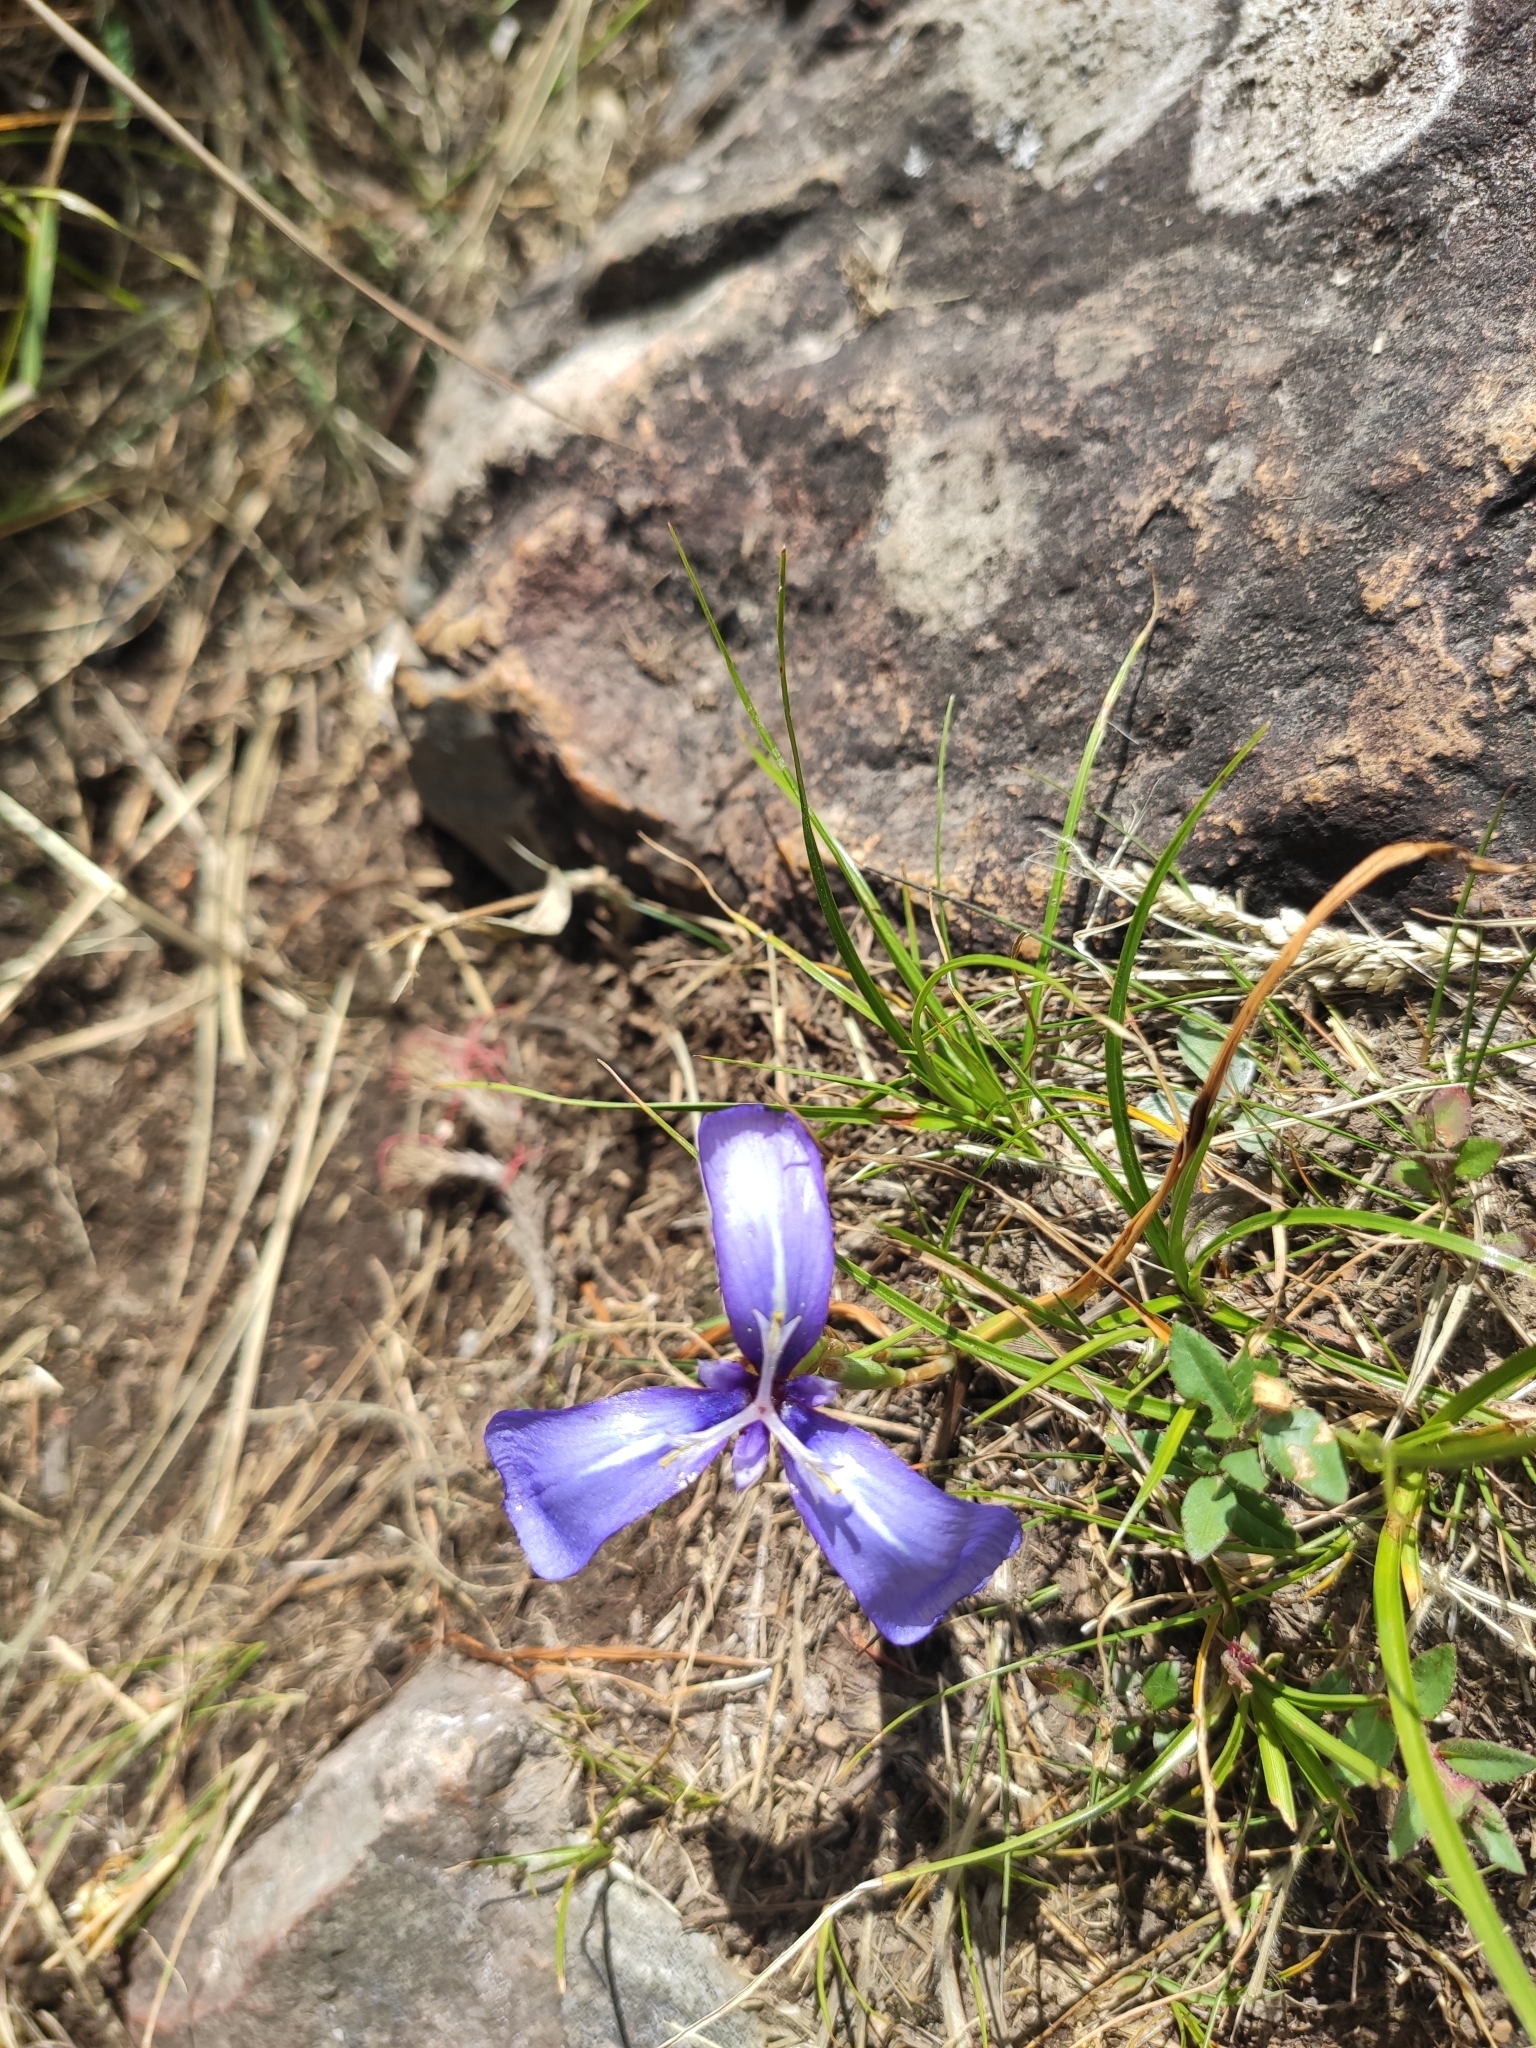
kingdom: Plantae
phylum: Tracheophyta
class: Liliopsida
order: Asparagales
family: Iridaceae
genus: Herbertia
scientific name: Herbertia pulchella
